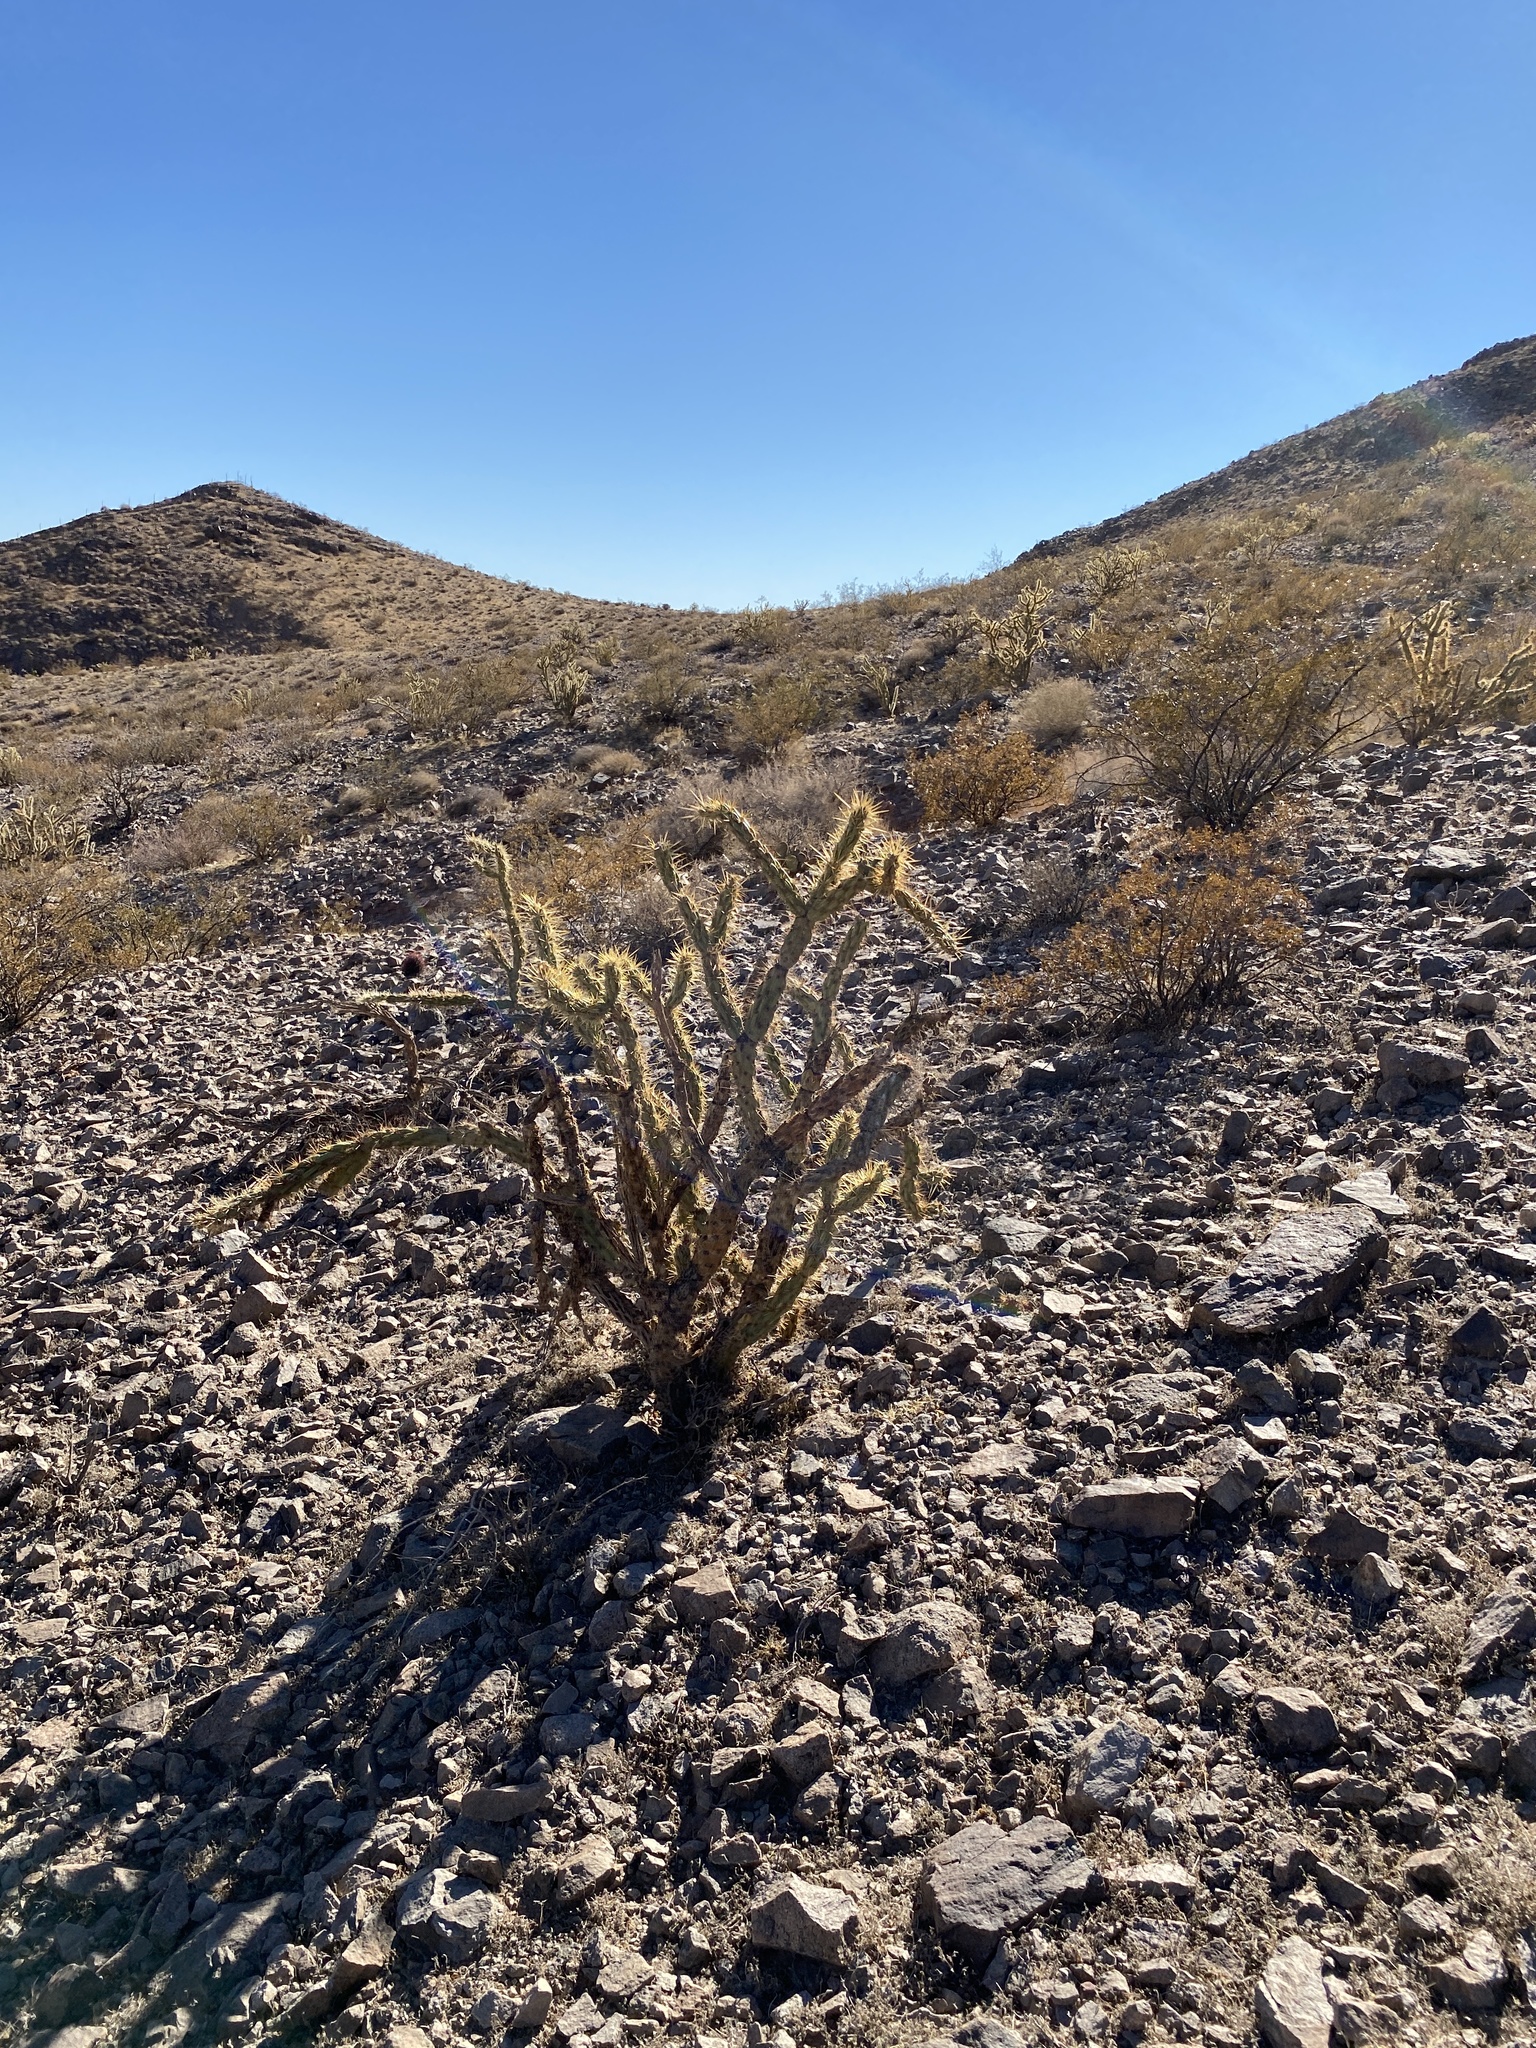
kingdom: Plantae
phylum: Tracheophyta
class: Magnoliopsida
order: Caryophyllales
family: Cactaceae
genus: Cylindropuntia
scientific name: Cylindropuntia acanthocarpa
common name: Buckhorn cholla
